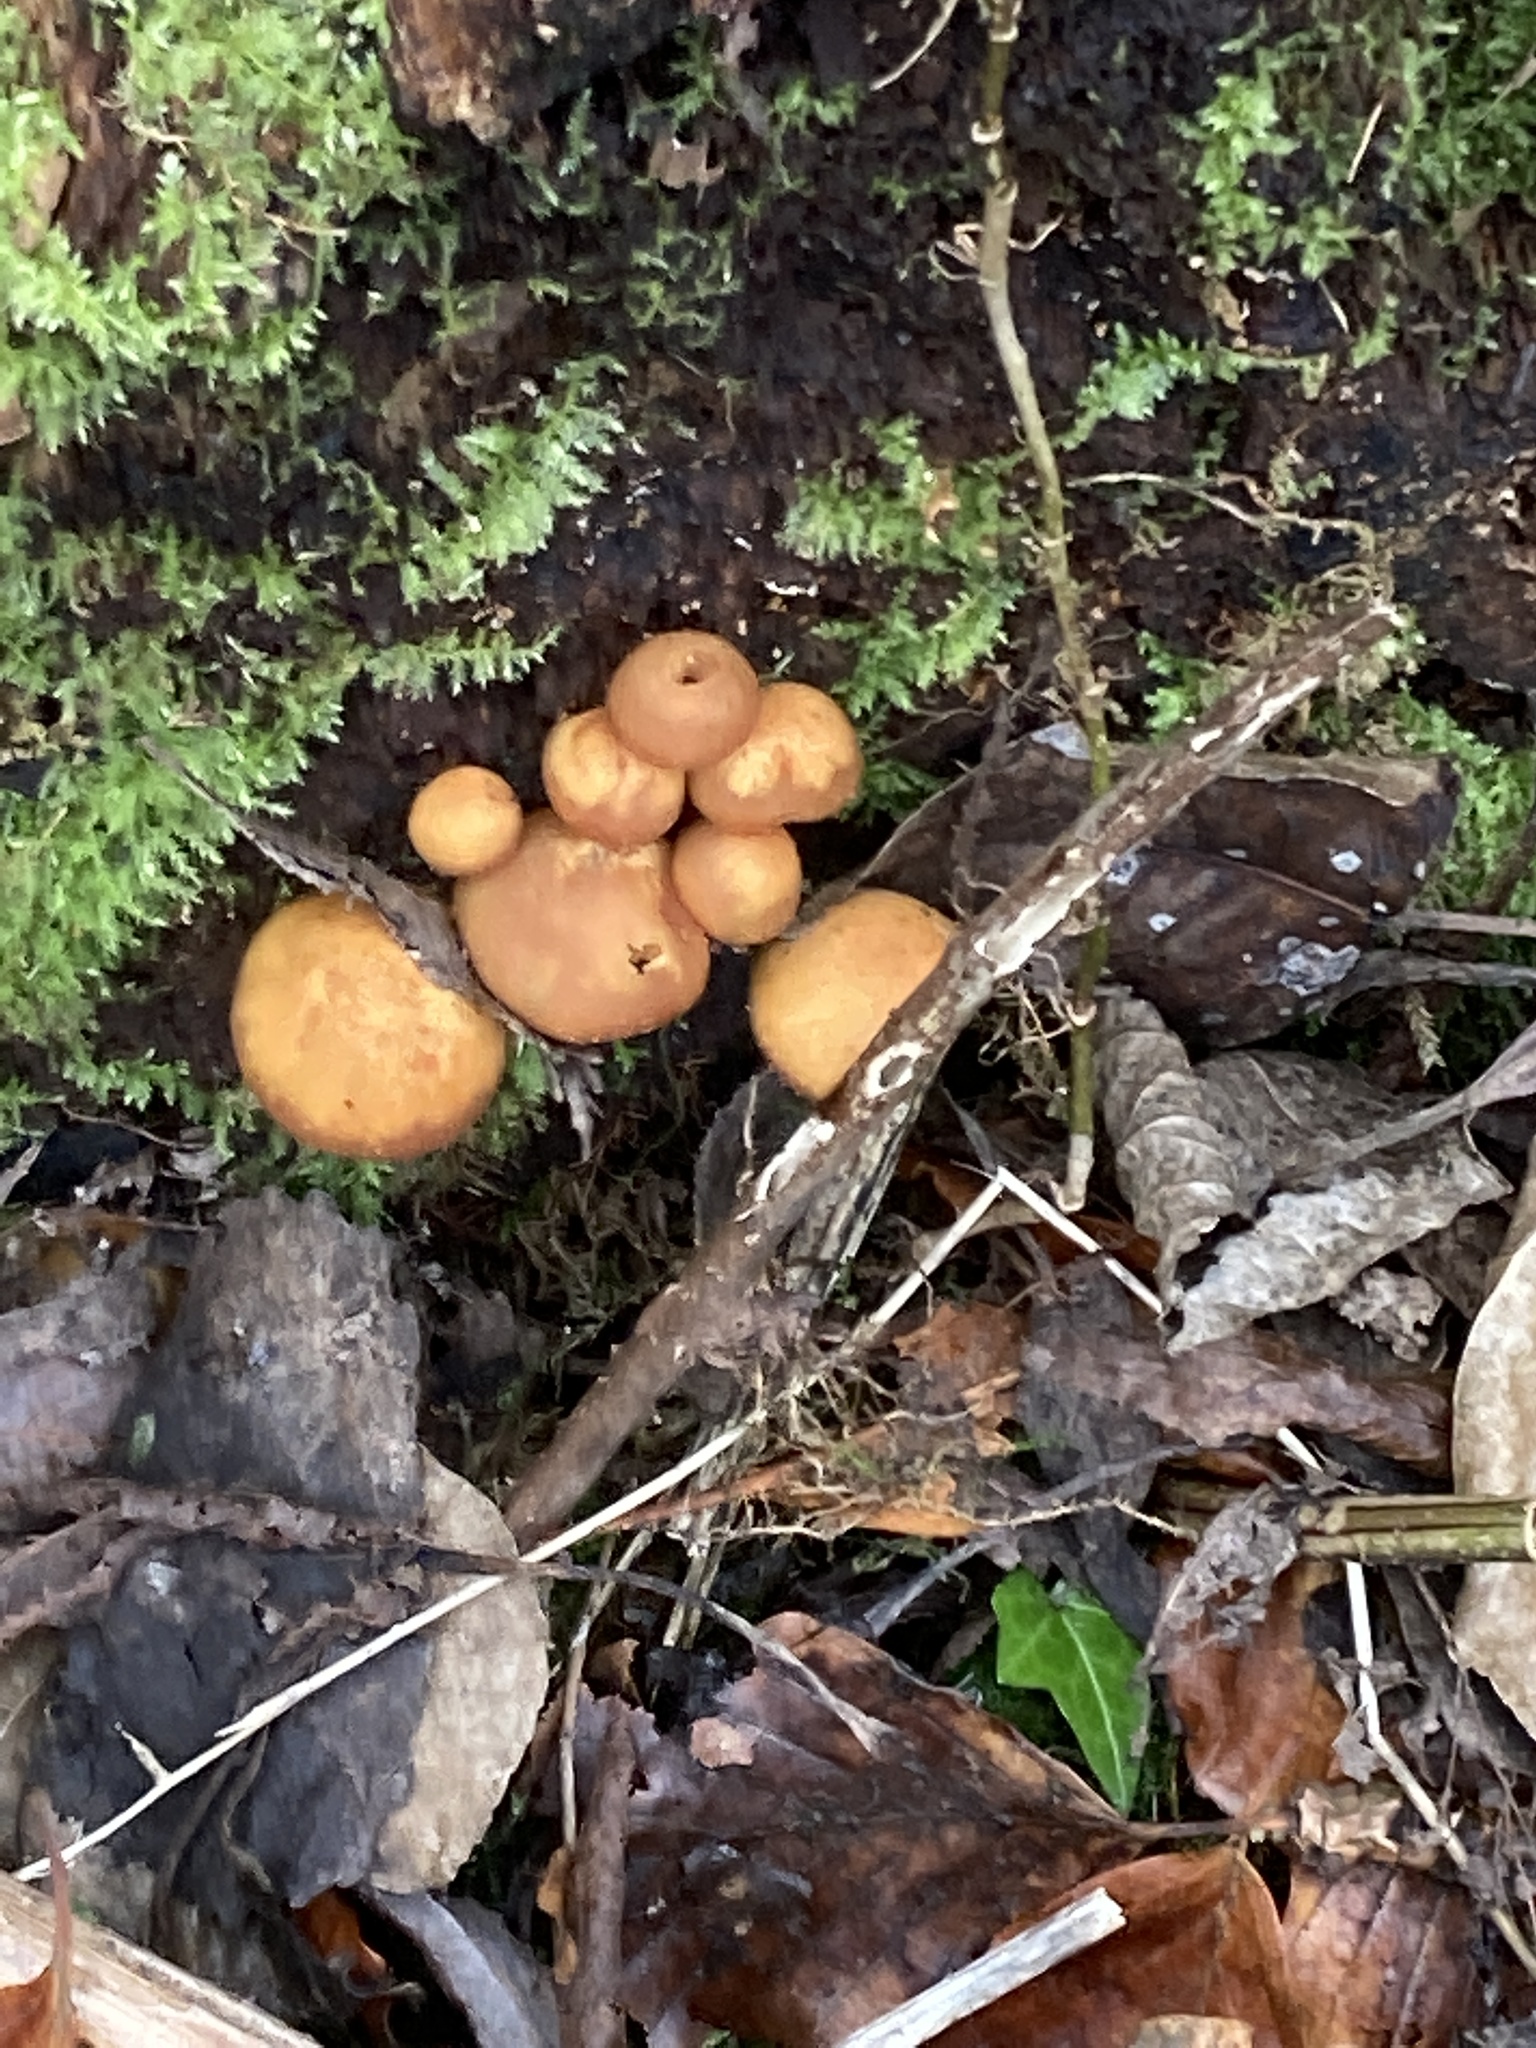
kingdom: Fungi
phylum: Basidiomycota
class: Agaricomycetes
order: Agaricales
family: Strophariaceae
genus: Kuehneromyces
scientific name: Kuehneromyces mutabilis
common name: Sheathed woodtuft
